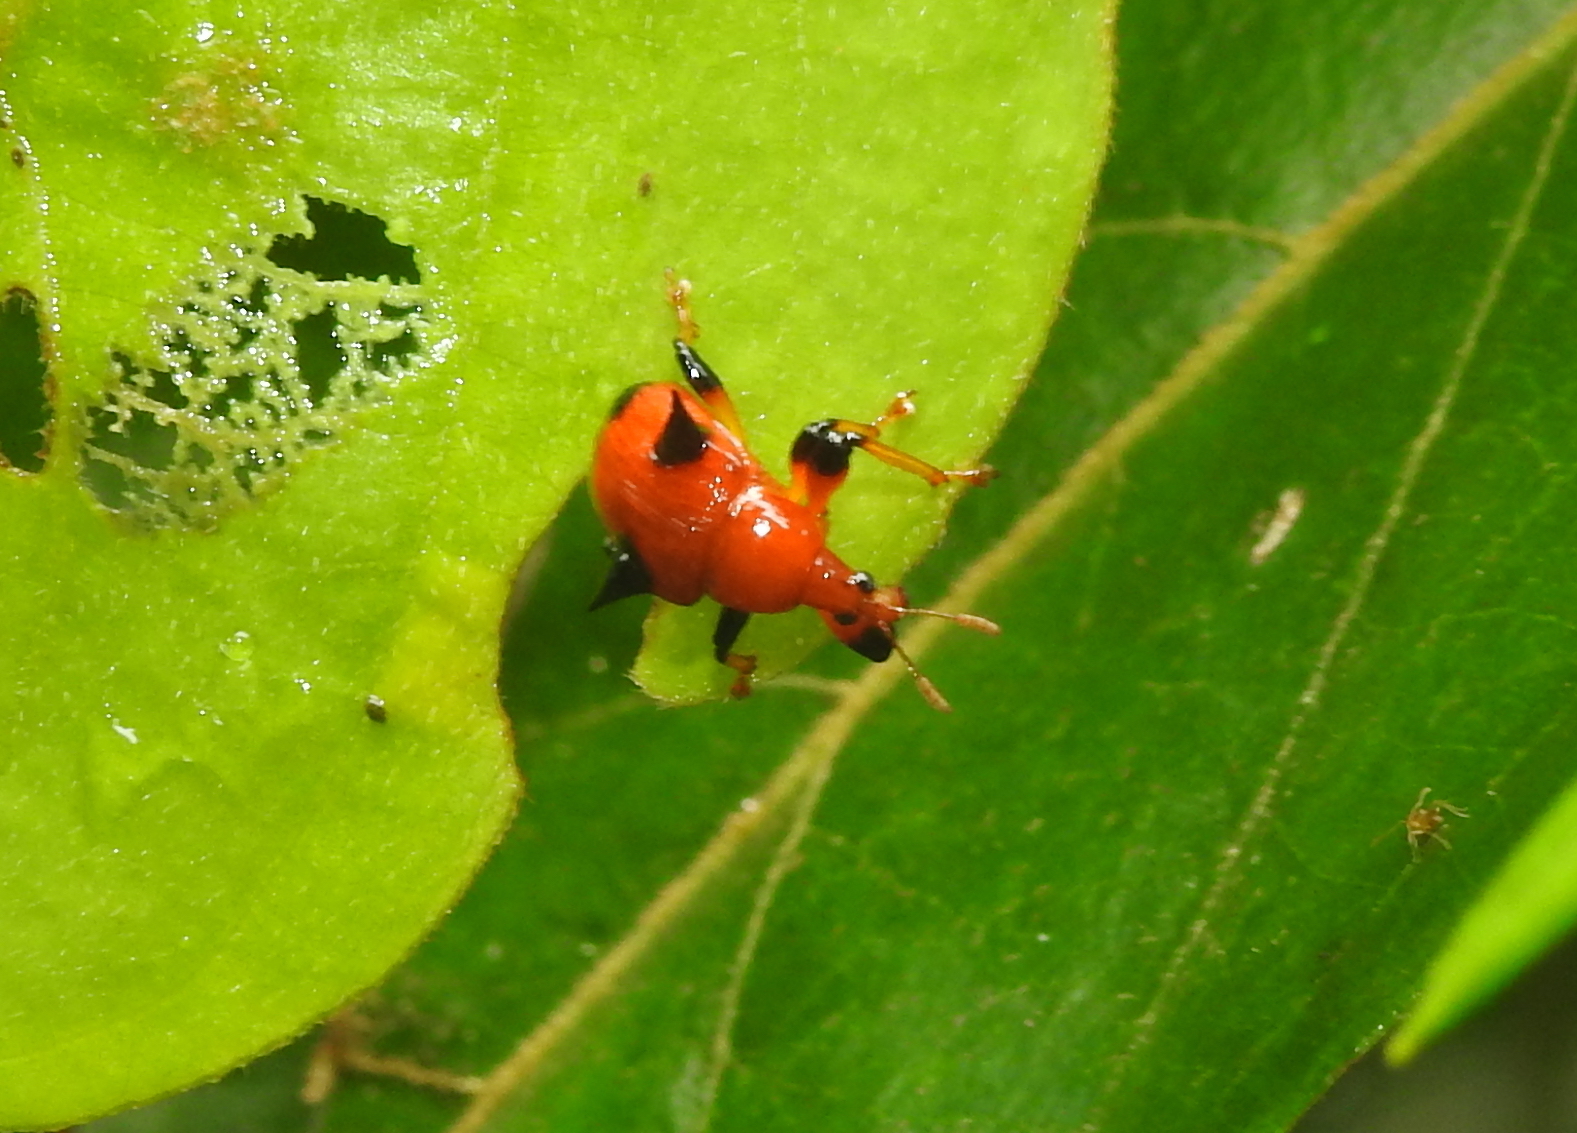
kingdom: Animalia
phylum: Arthropoda
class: Insecta
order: Coleoptera
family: Attelabidae
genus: Lamprolabus
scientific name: Lamprolabus bispinosus
